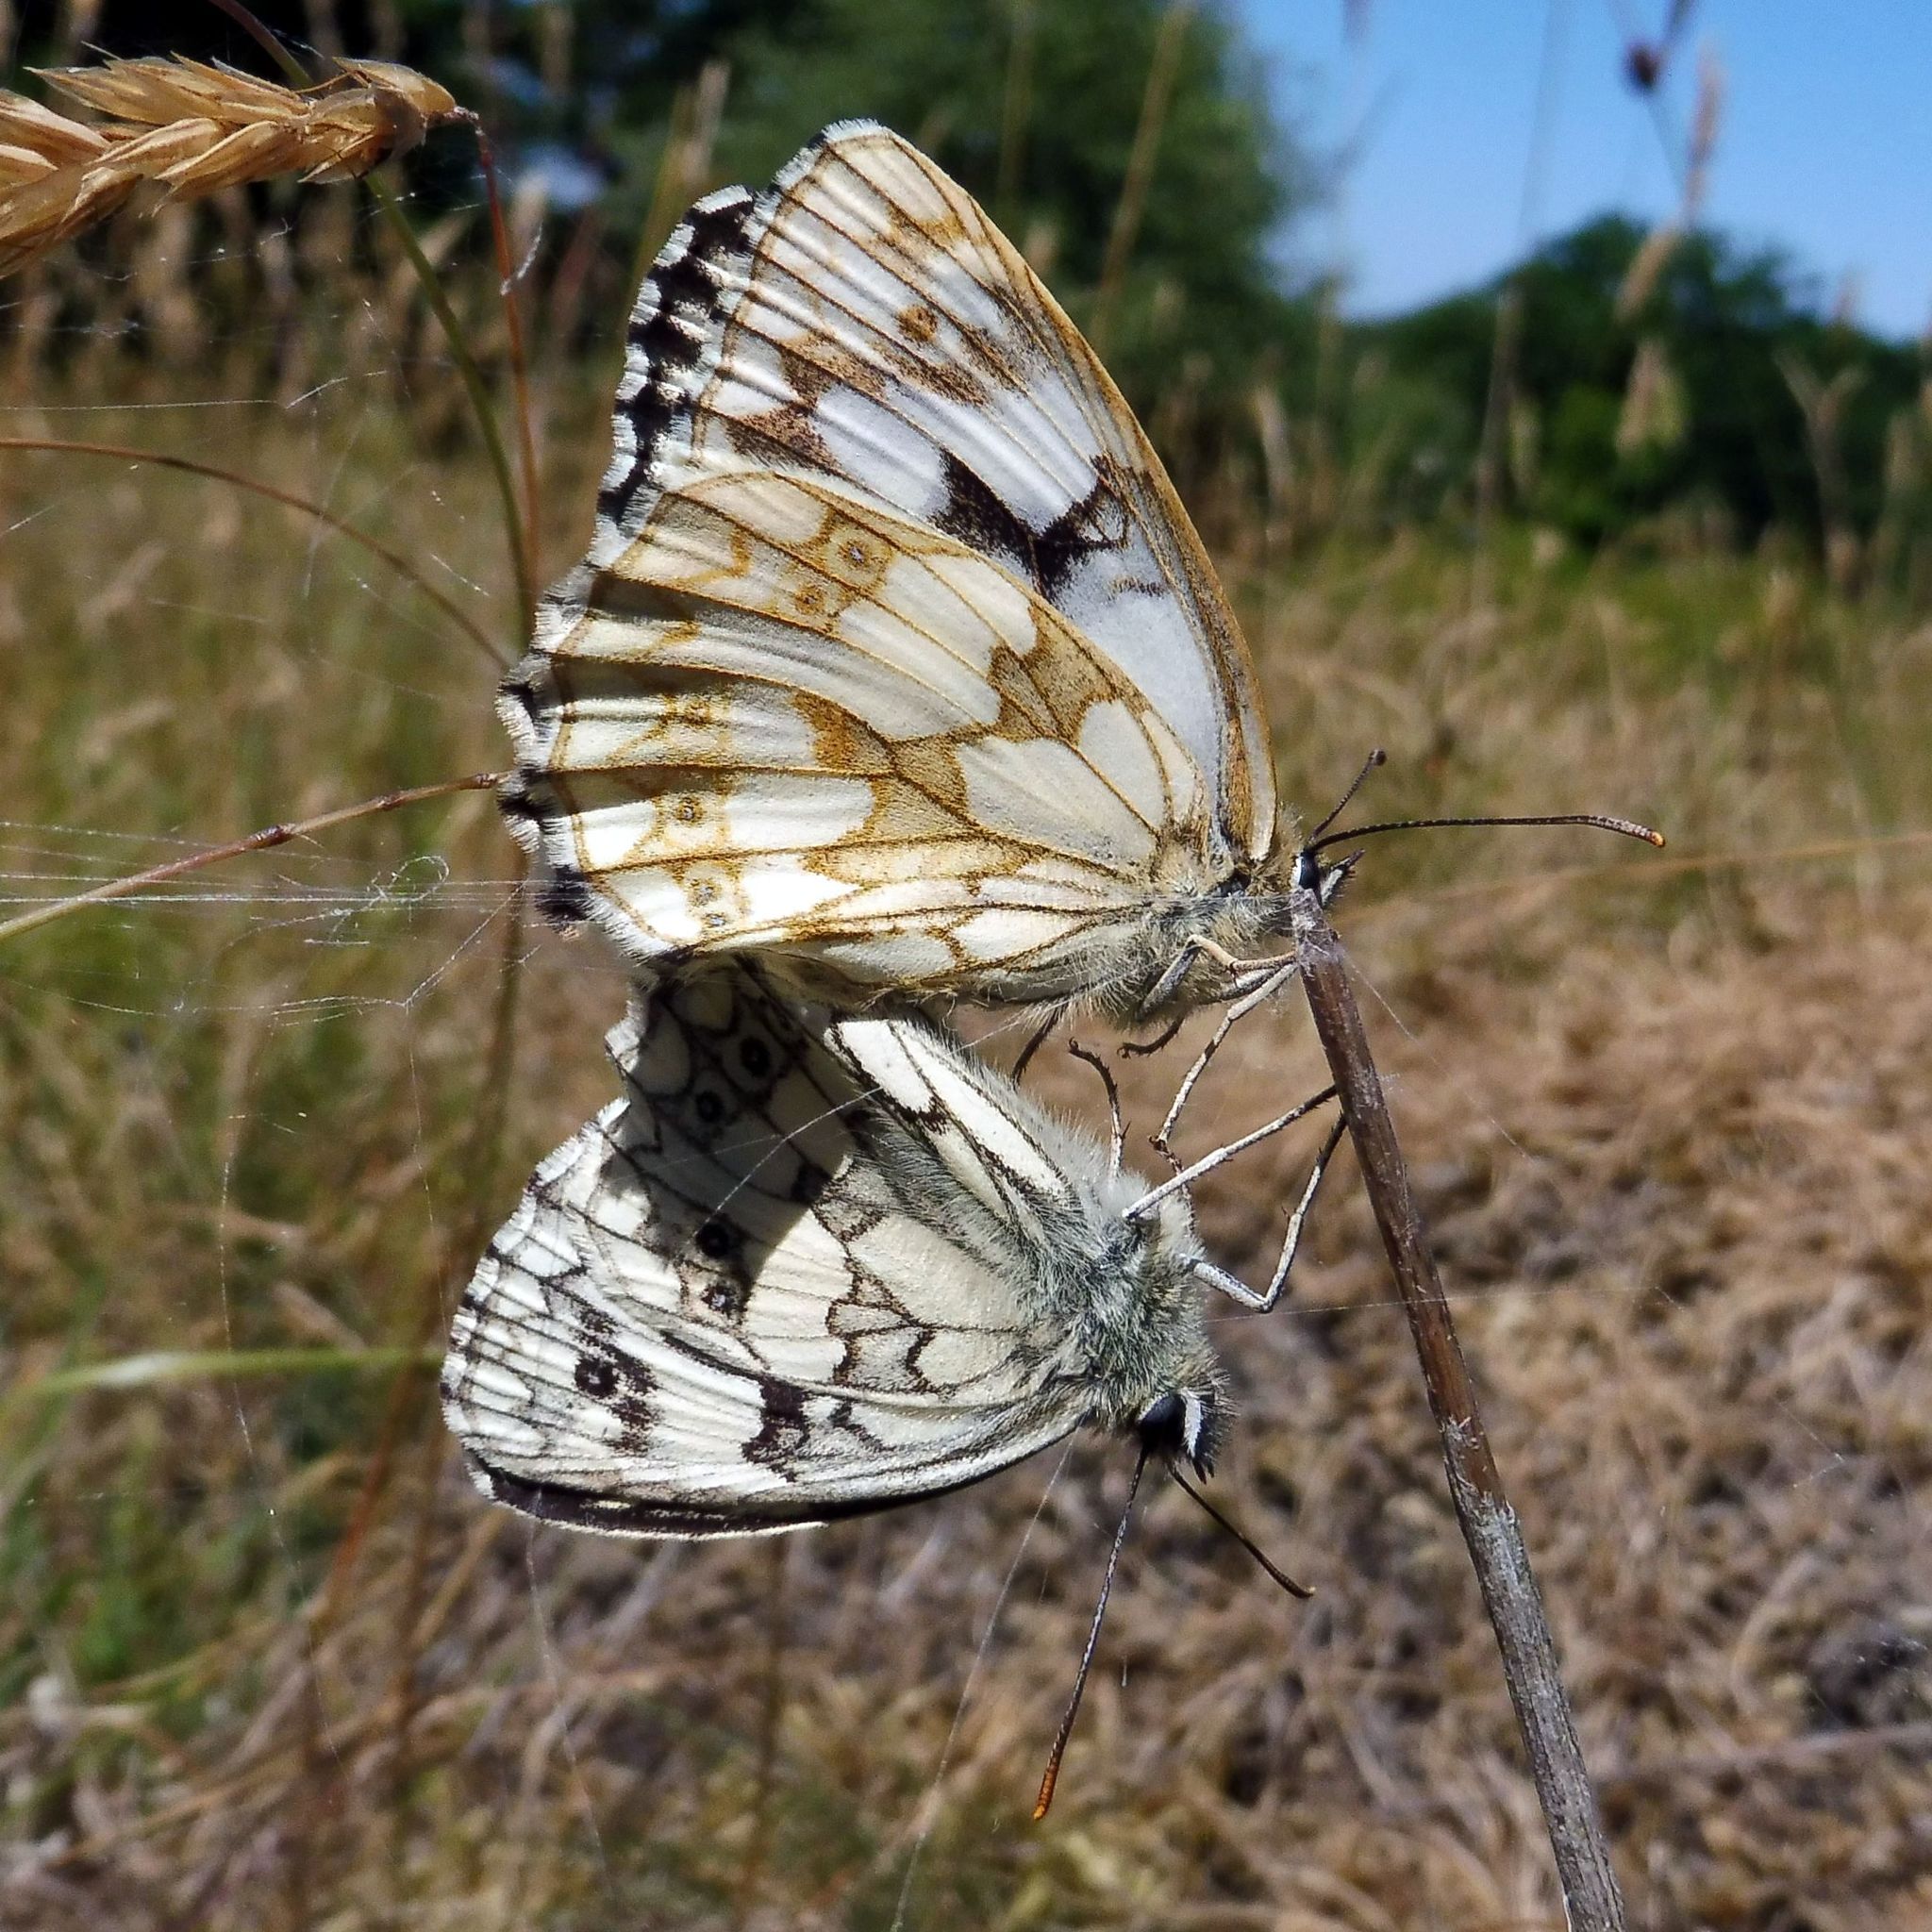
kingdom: Animalia
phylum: Arthropoda
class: Insecta
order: Lepidoptera
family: Nymphalidae
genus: Melanargia
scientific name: Melanargia galathea
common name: Marbled white
